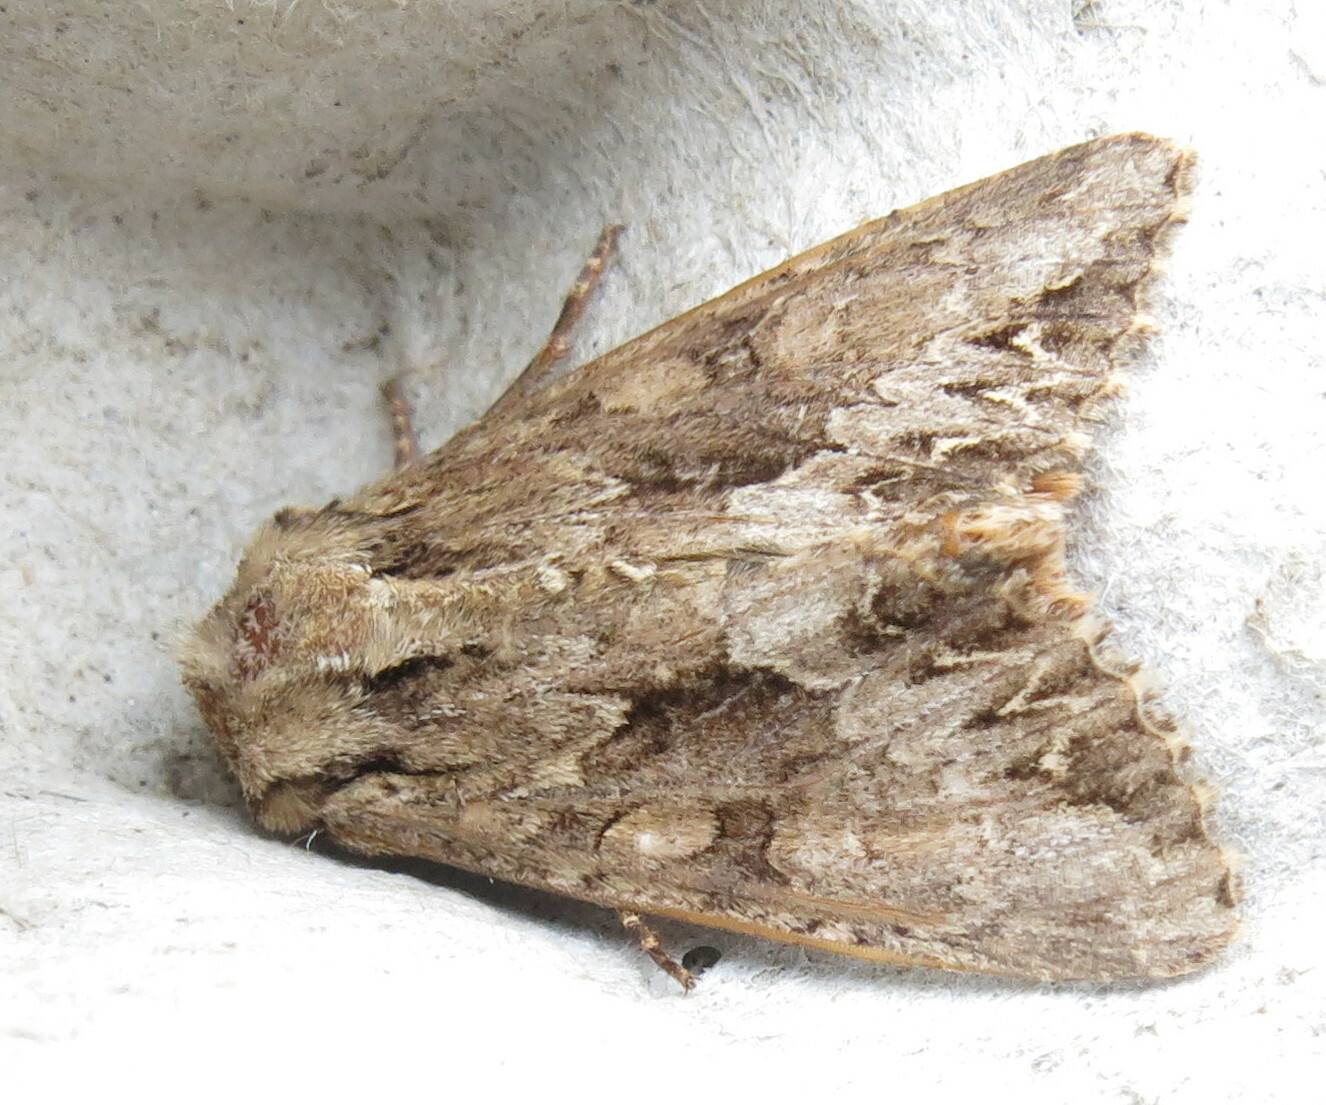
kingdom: Animalia
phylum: Arthropoda
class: Insecta
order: Lepidoptera
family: Noctuidae
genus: Apamea
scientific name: Apamea monoglypha
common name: Dark arches
